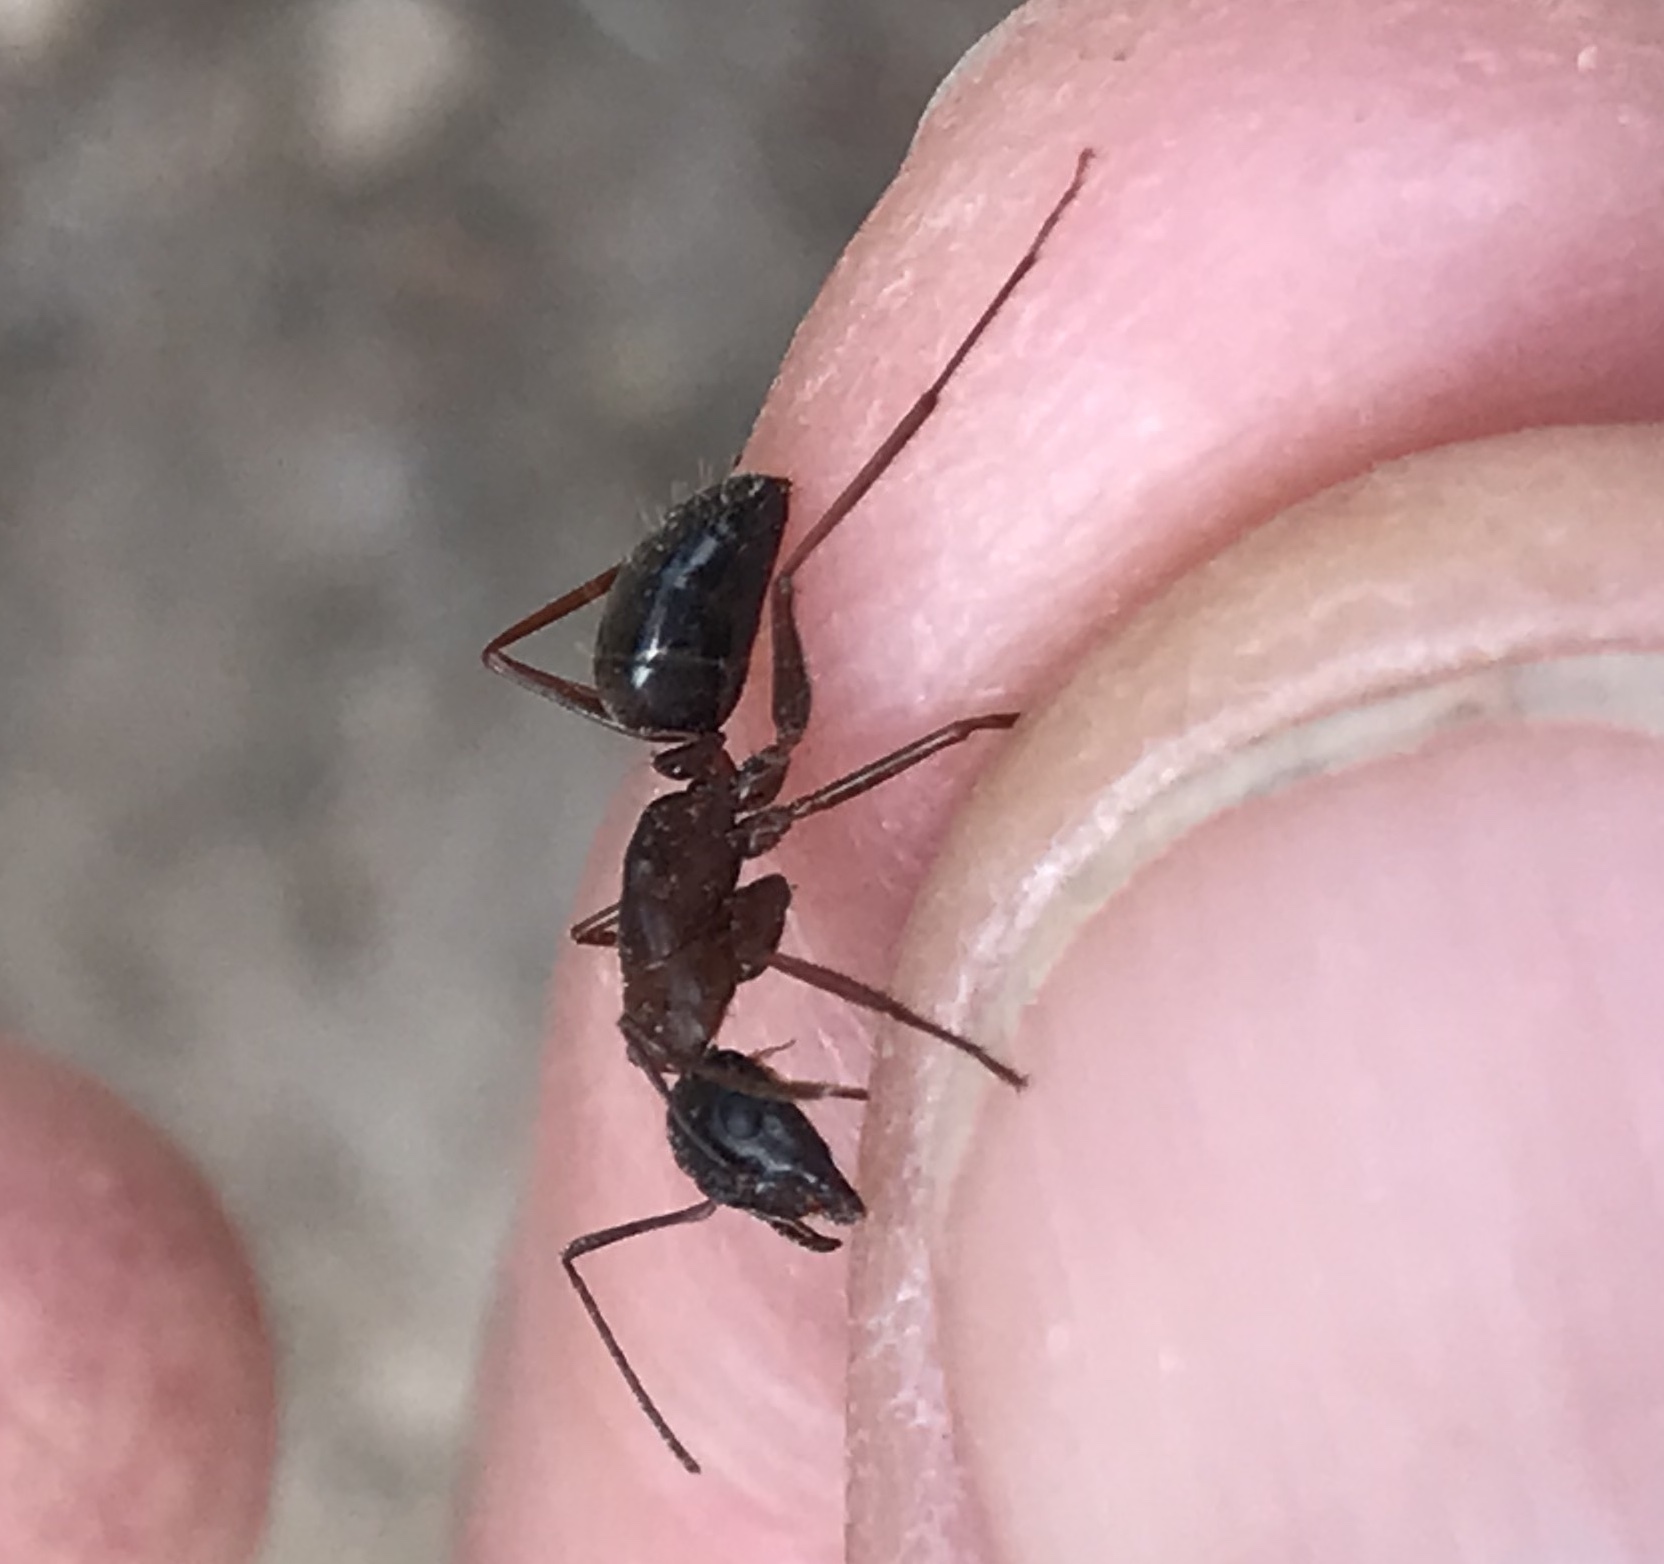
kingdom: Animalia
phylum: Arthropoda
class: Insecta
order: Hymenoptera
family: Formicidae
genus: Camponotus
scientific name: Camponotus vicinus
